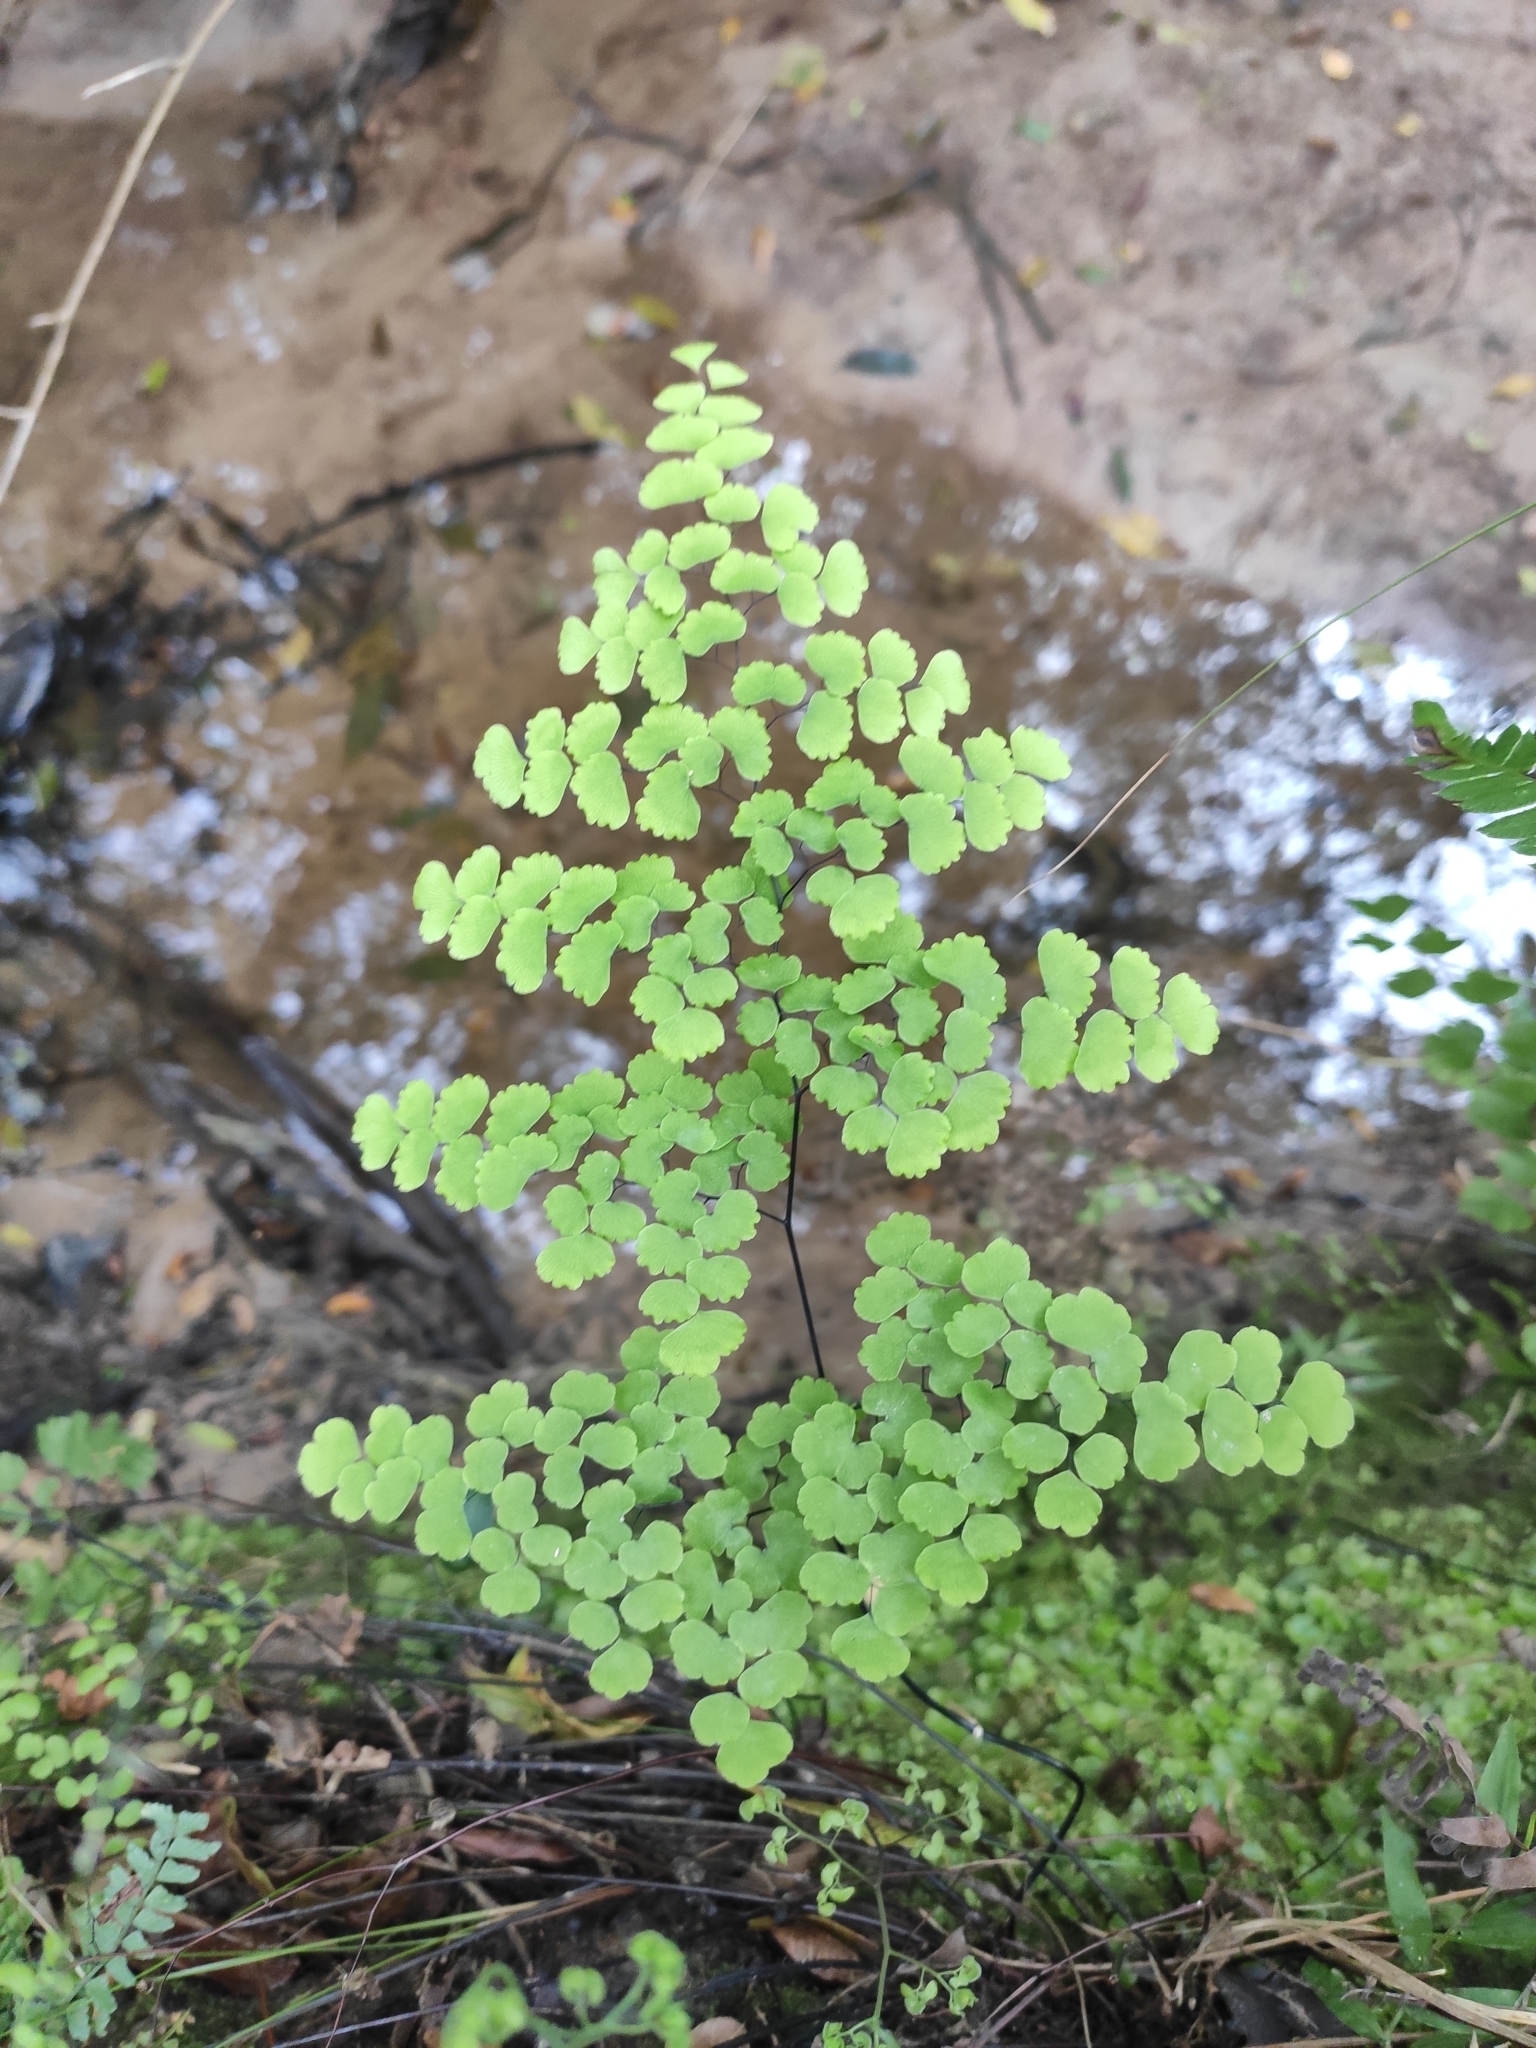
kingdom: Plantae
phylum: Tracheophyta
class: Polypodiopsida
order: Polypodiales
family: Pteridaceae
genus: Adiantum
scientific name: Adiantum poiretii
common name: Mexican maidenhair
